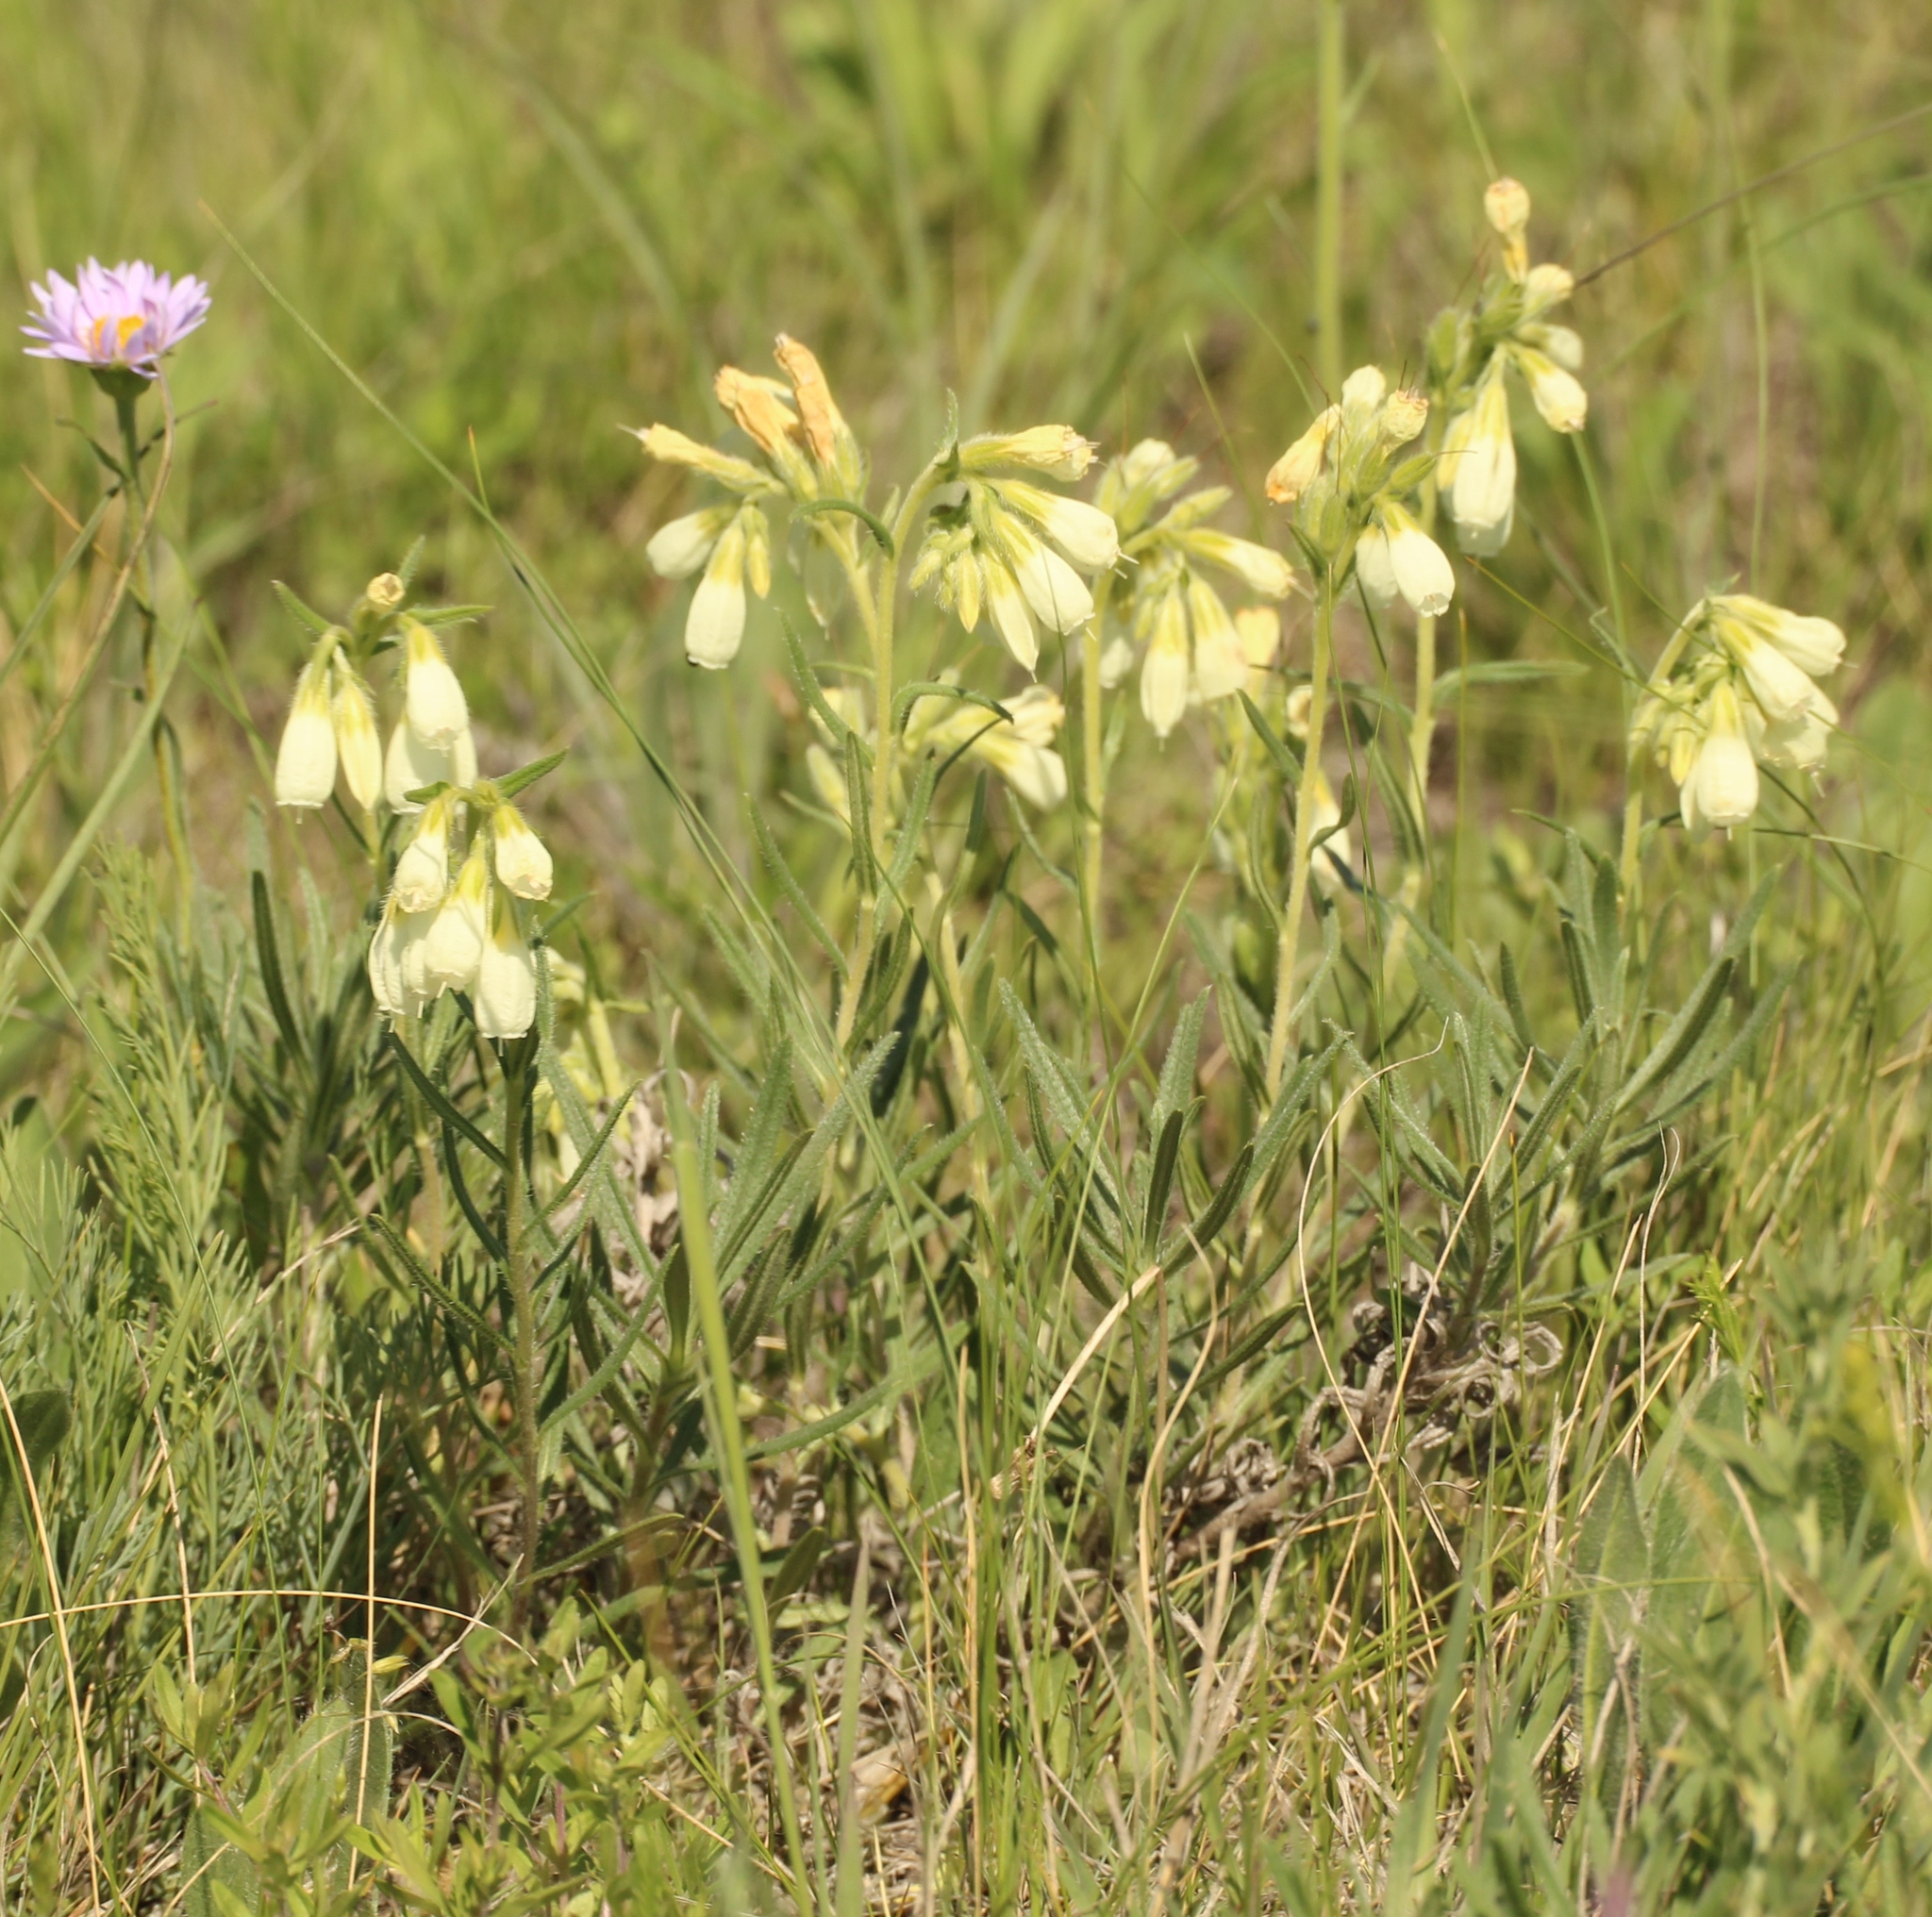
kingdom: Plantae
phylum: Tracheophyta
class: Magnoliopsida
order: Boraginales
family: Boraginaceae
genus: Onosma
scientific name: Onosma simplicissima
